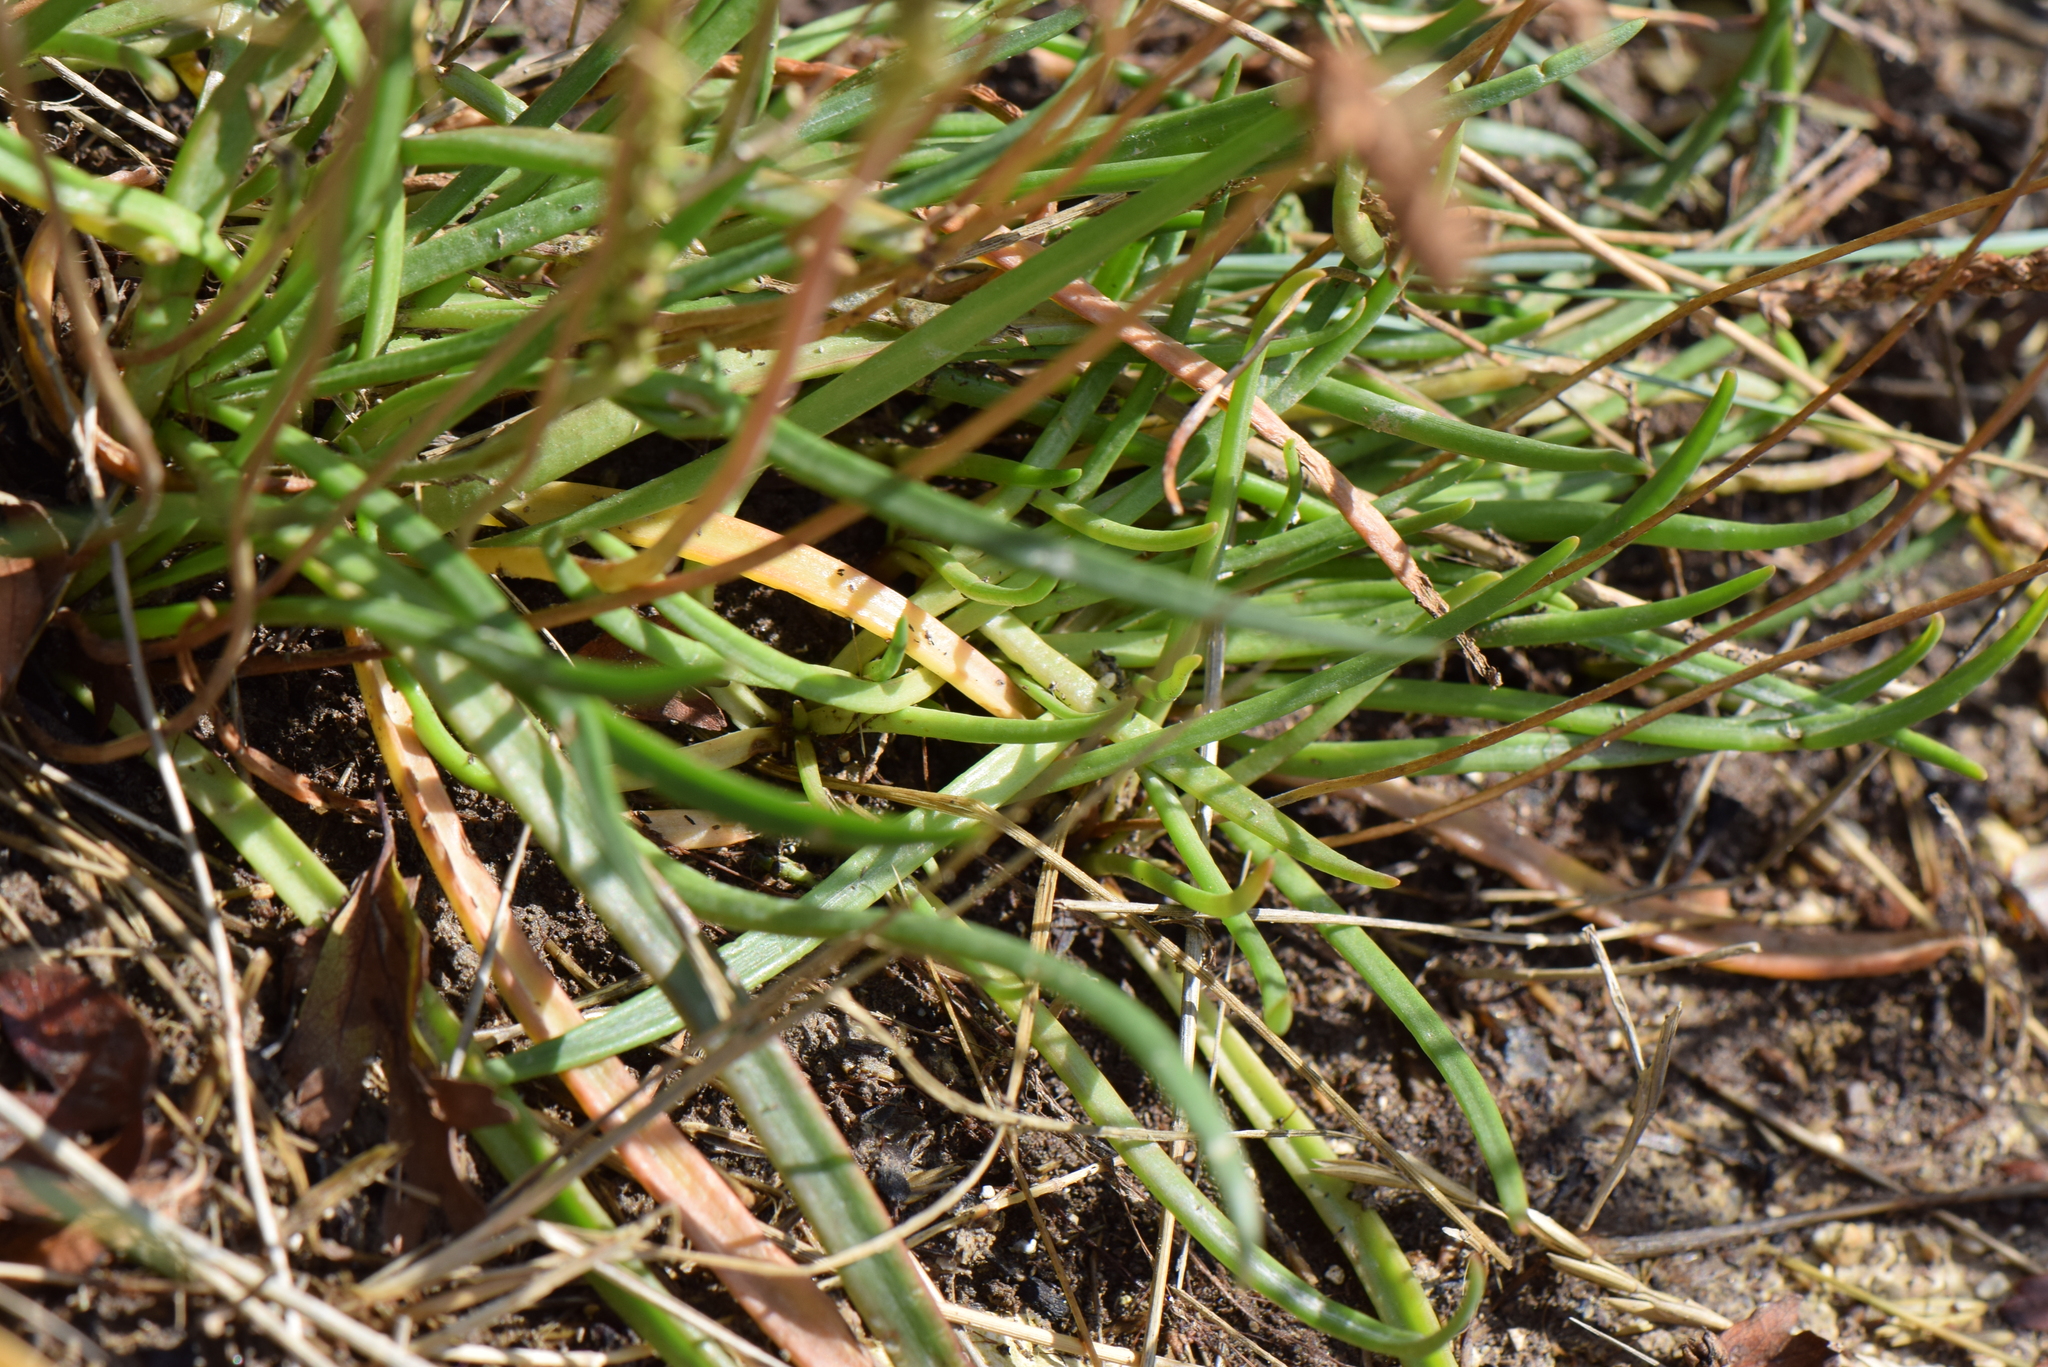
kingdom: Plantae
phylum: Tracheophyta
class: Magnoliopsida
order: Lamiales
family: Plantaginaceae
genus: Plantago
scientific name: Plantago maritima
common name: Sea plantain
